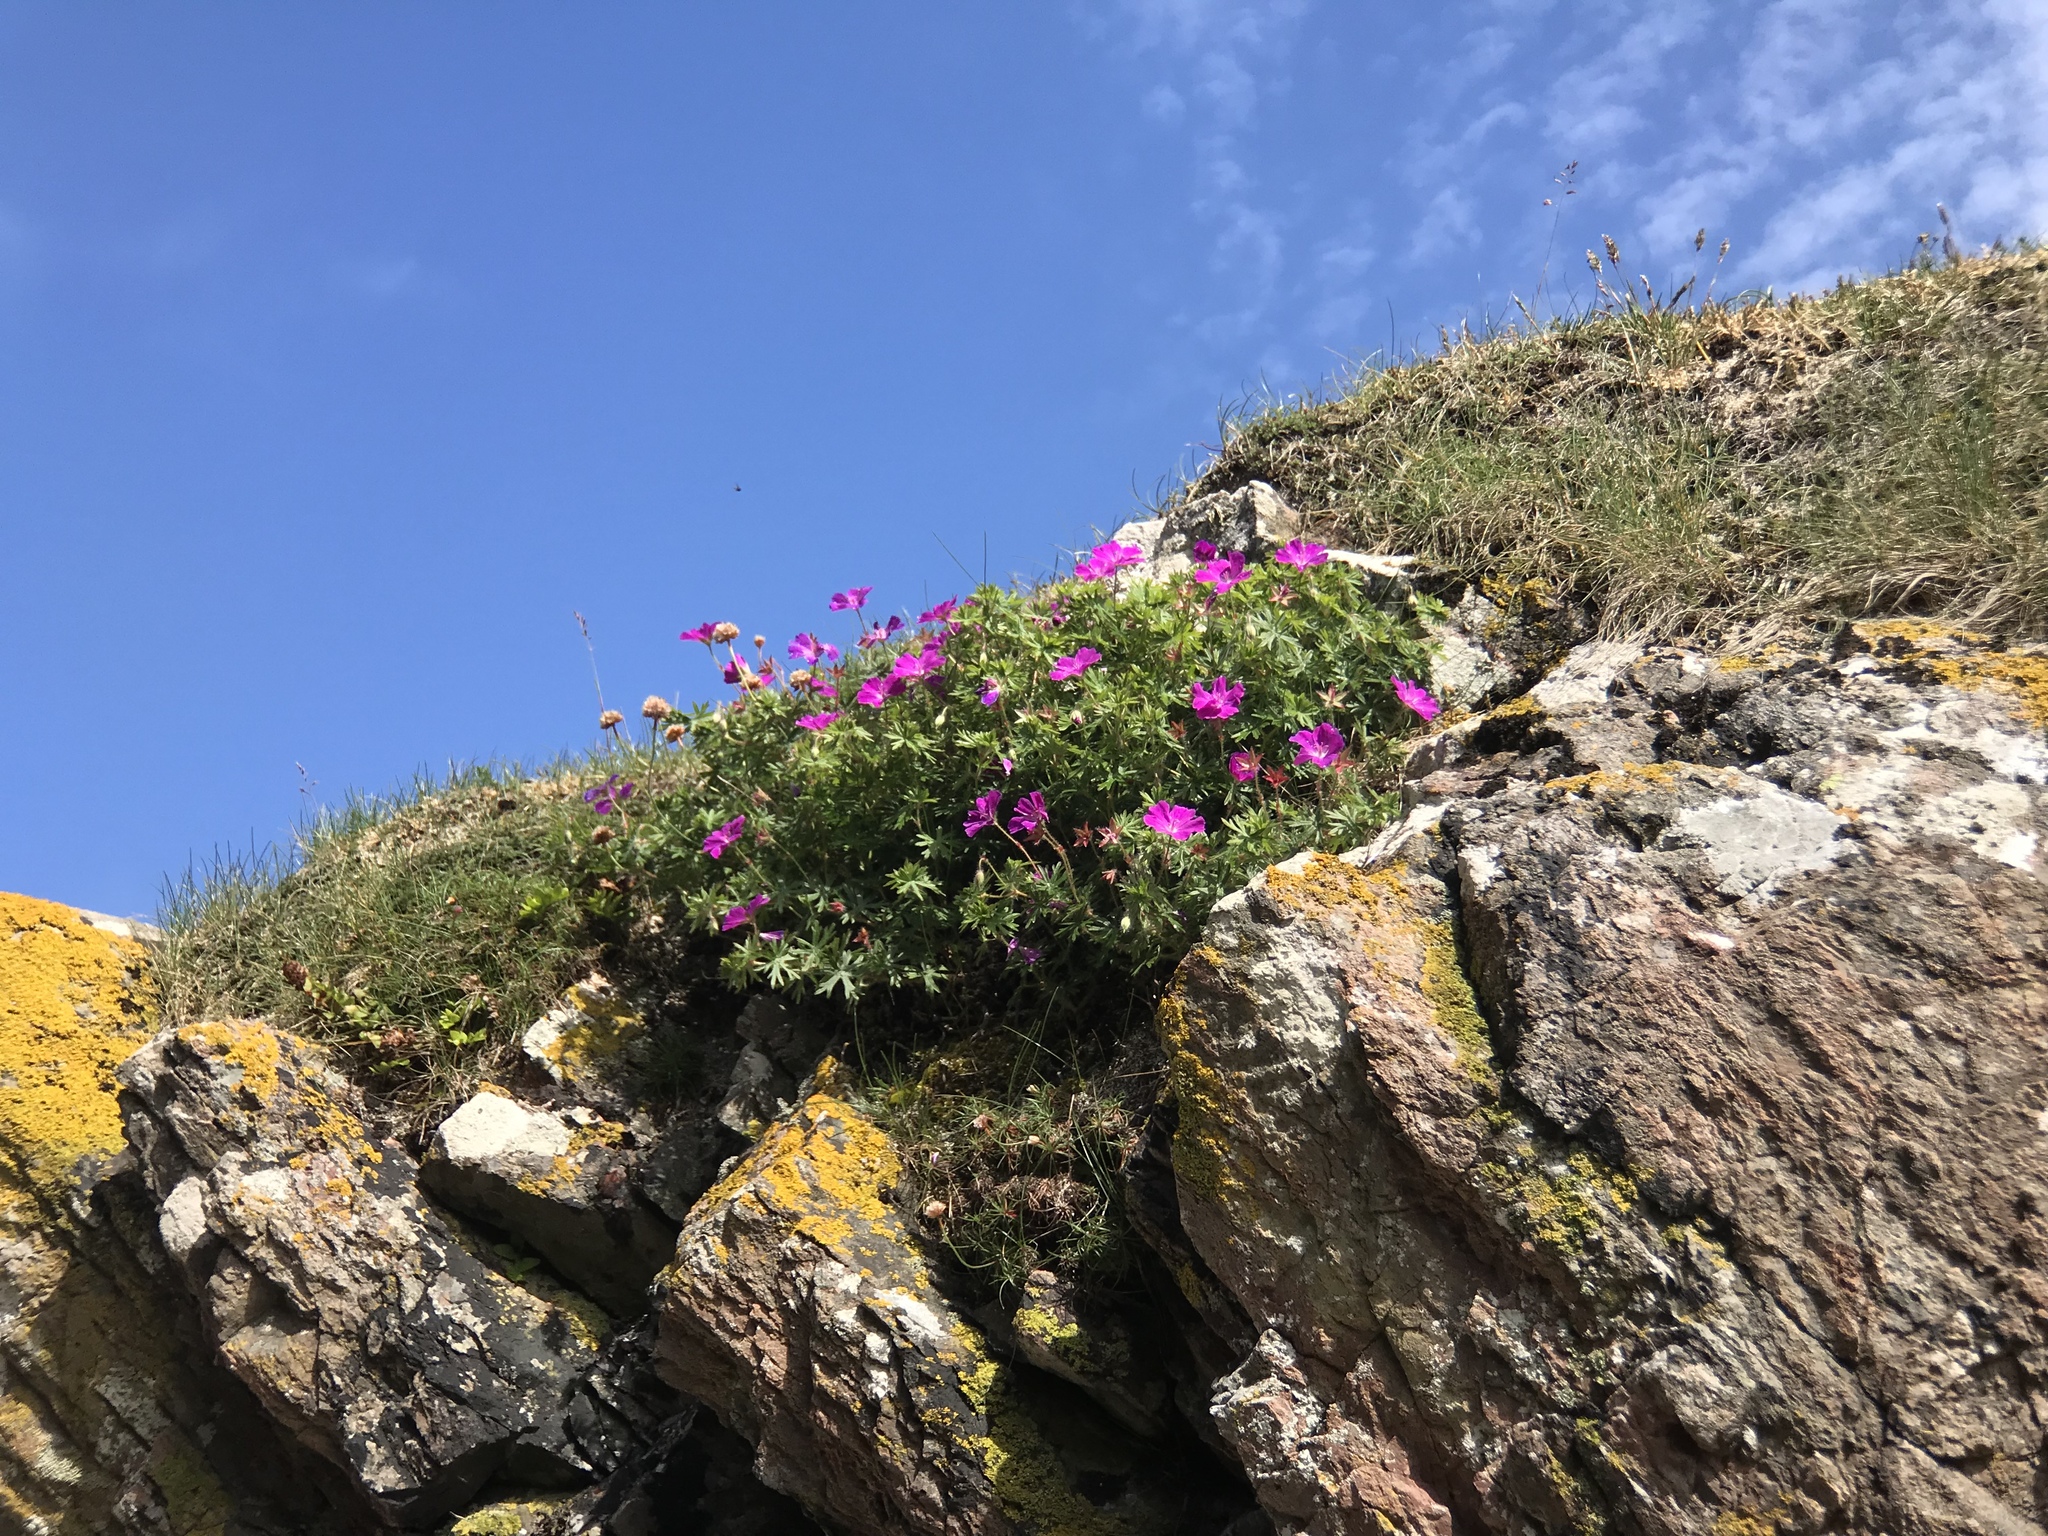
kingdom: Plantae
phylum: Tracheophyta
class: Magnoliopsida
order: Geraniales
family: Geraniaceae
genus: Geranium
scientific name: Geranium sanguineum
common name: Bloody crane's-bill
